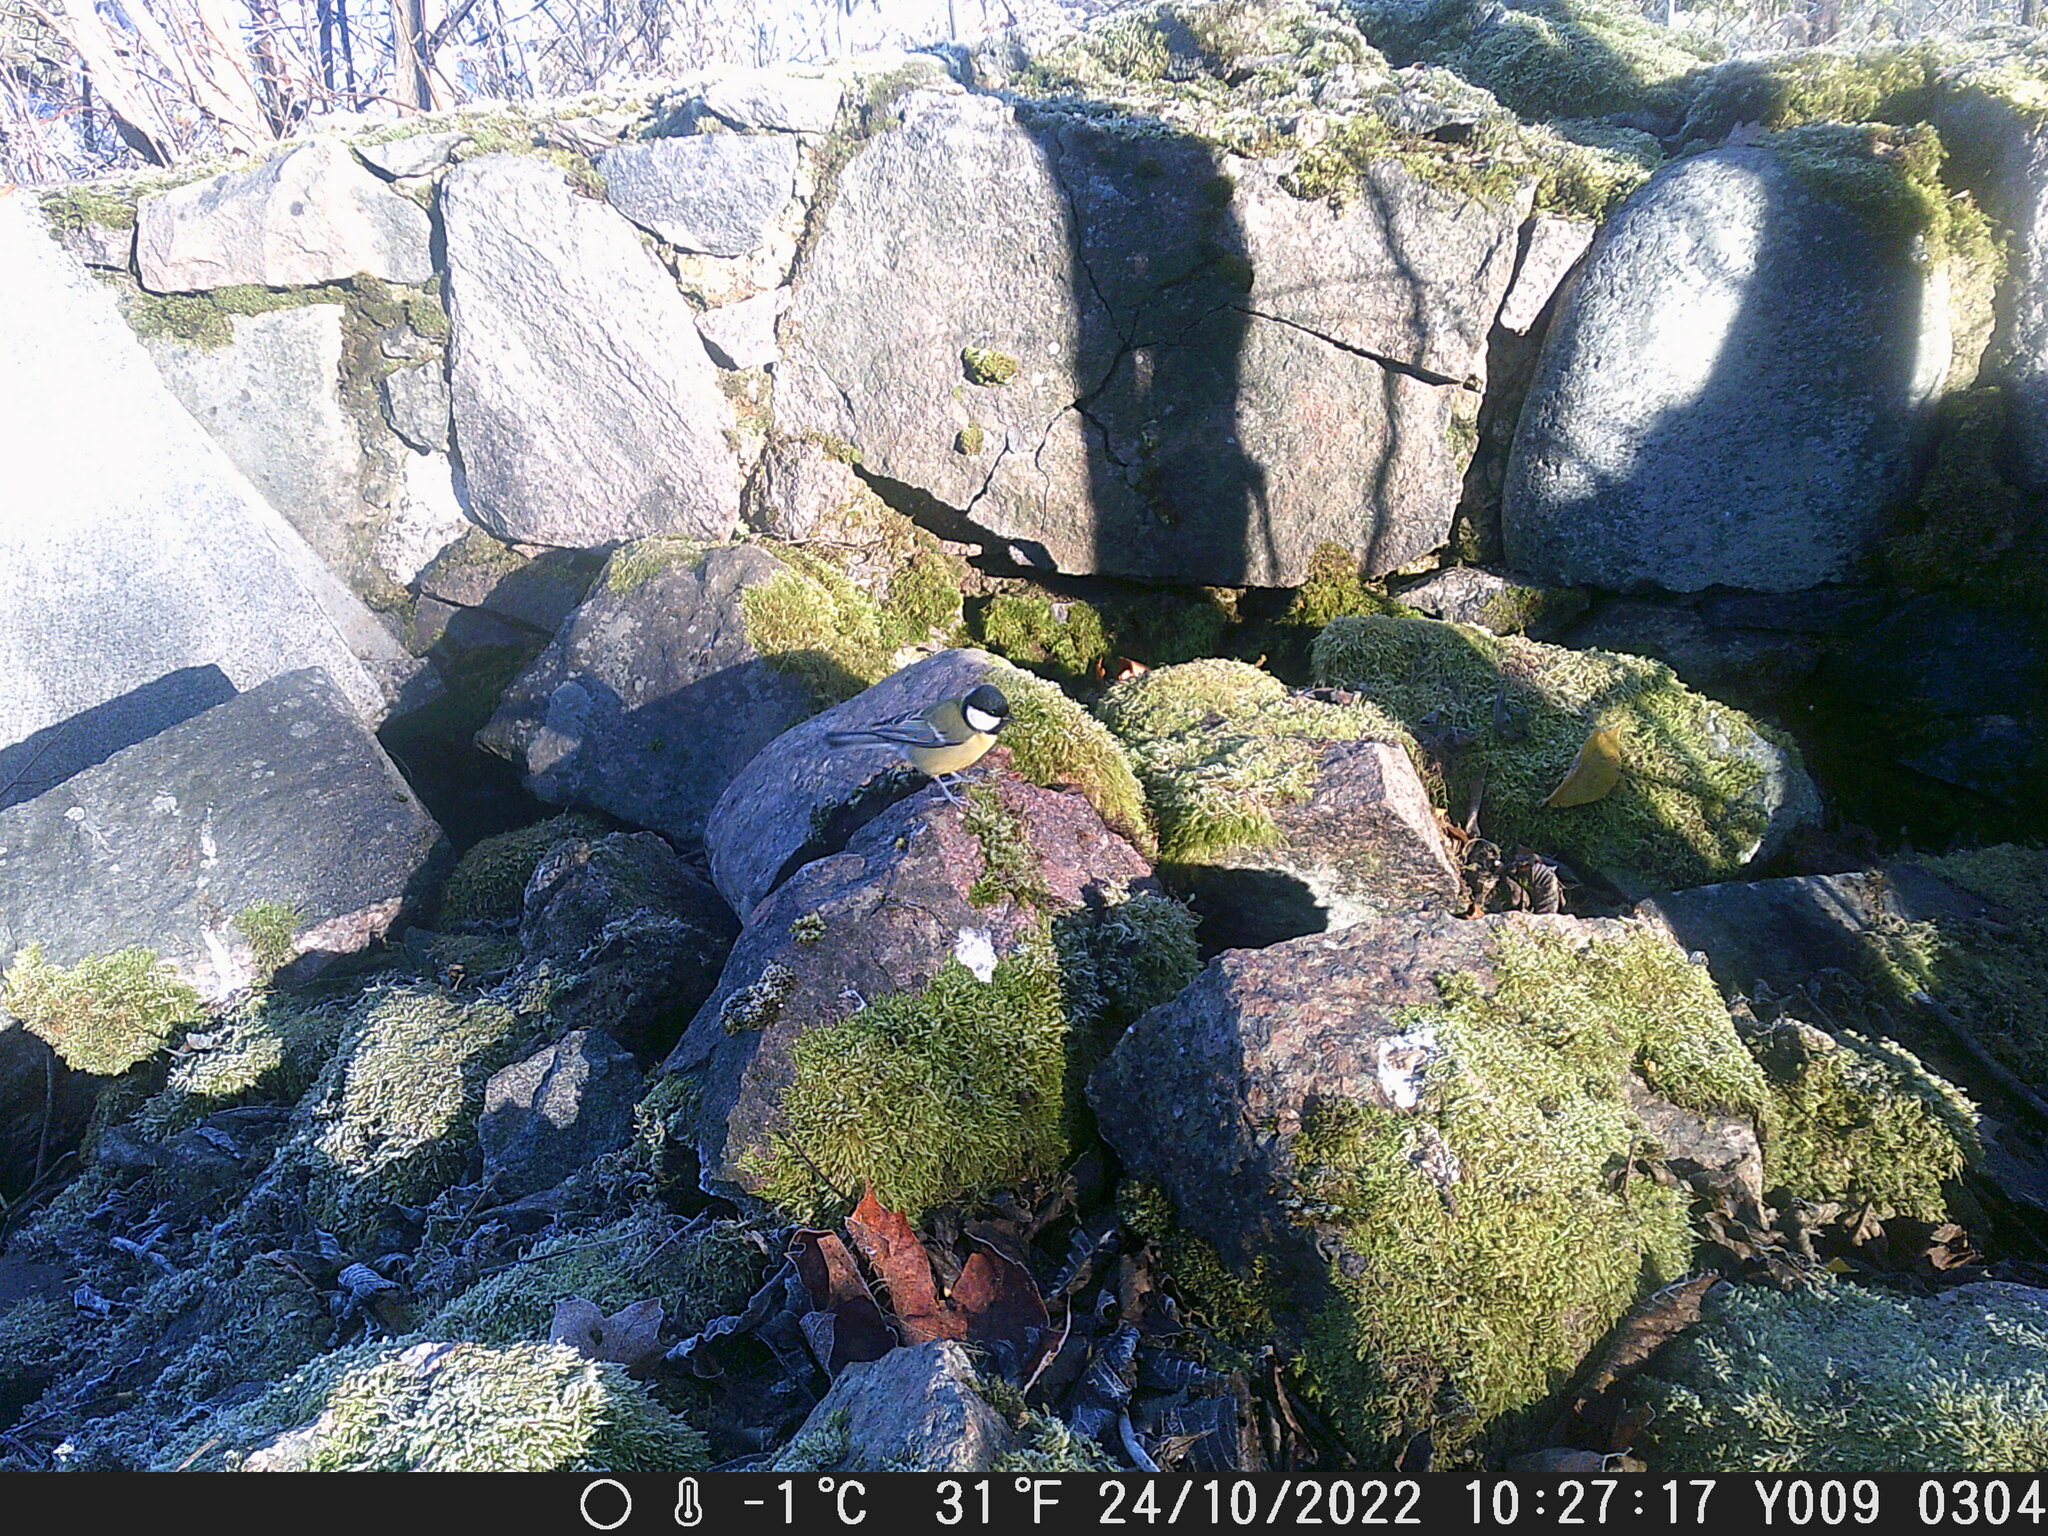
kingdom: Animalia
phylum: Chordata
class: Aves
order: Passeriformes
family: Paridae
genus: Parus
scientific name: Parus major
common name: Great tit
